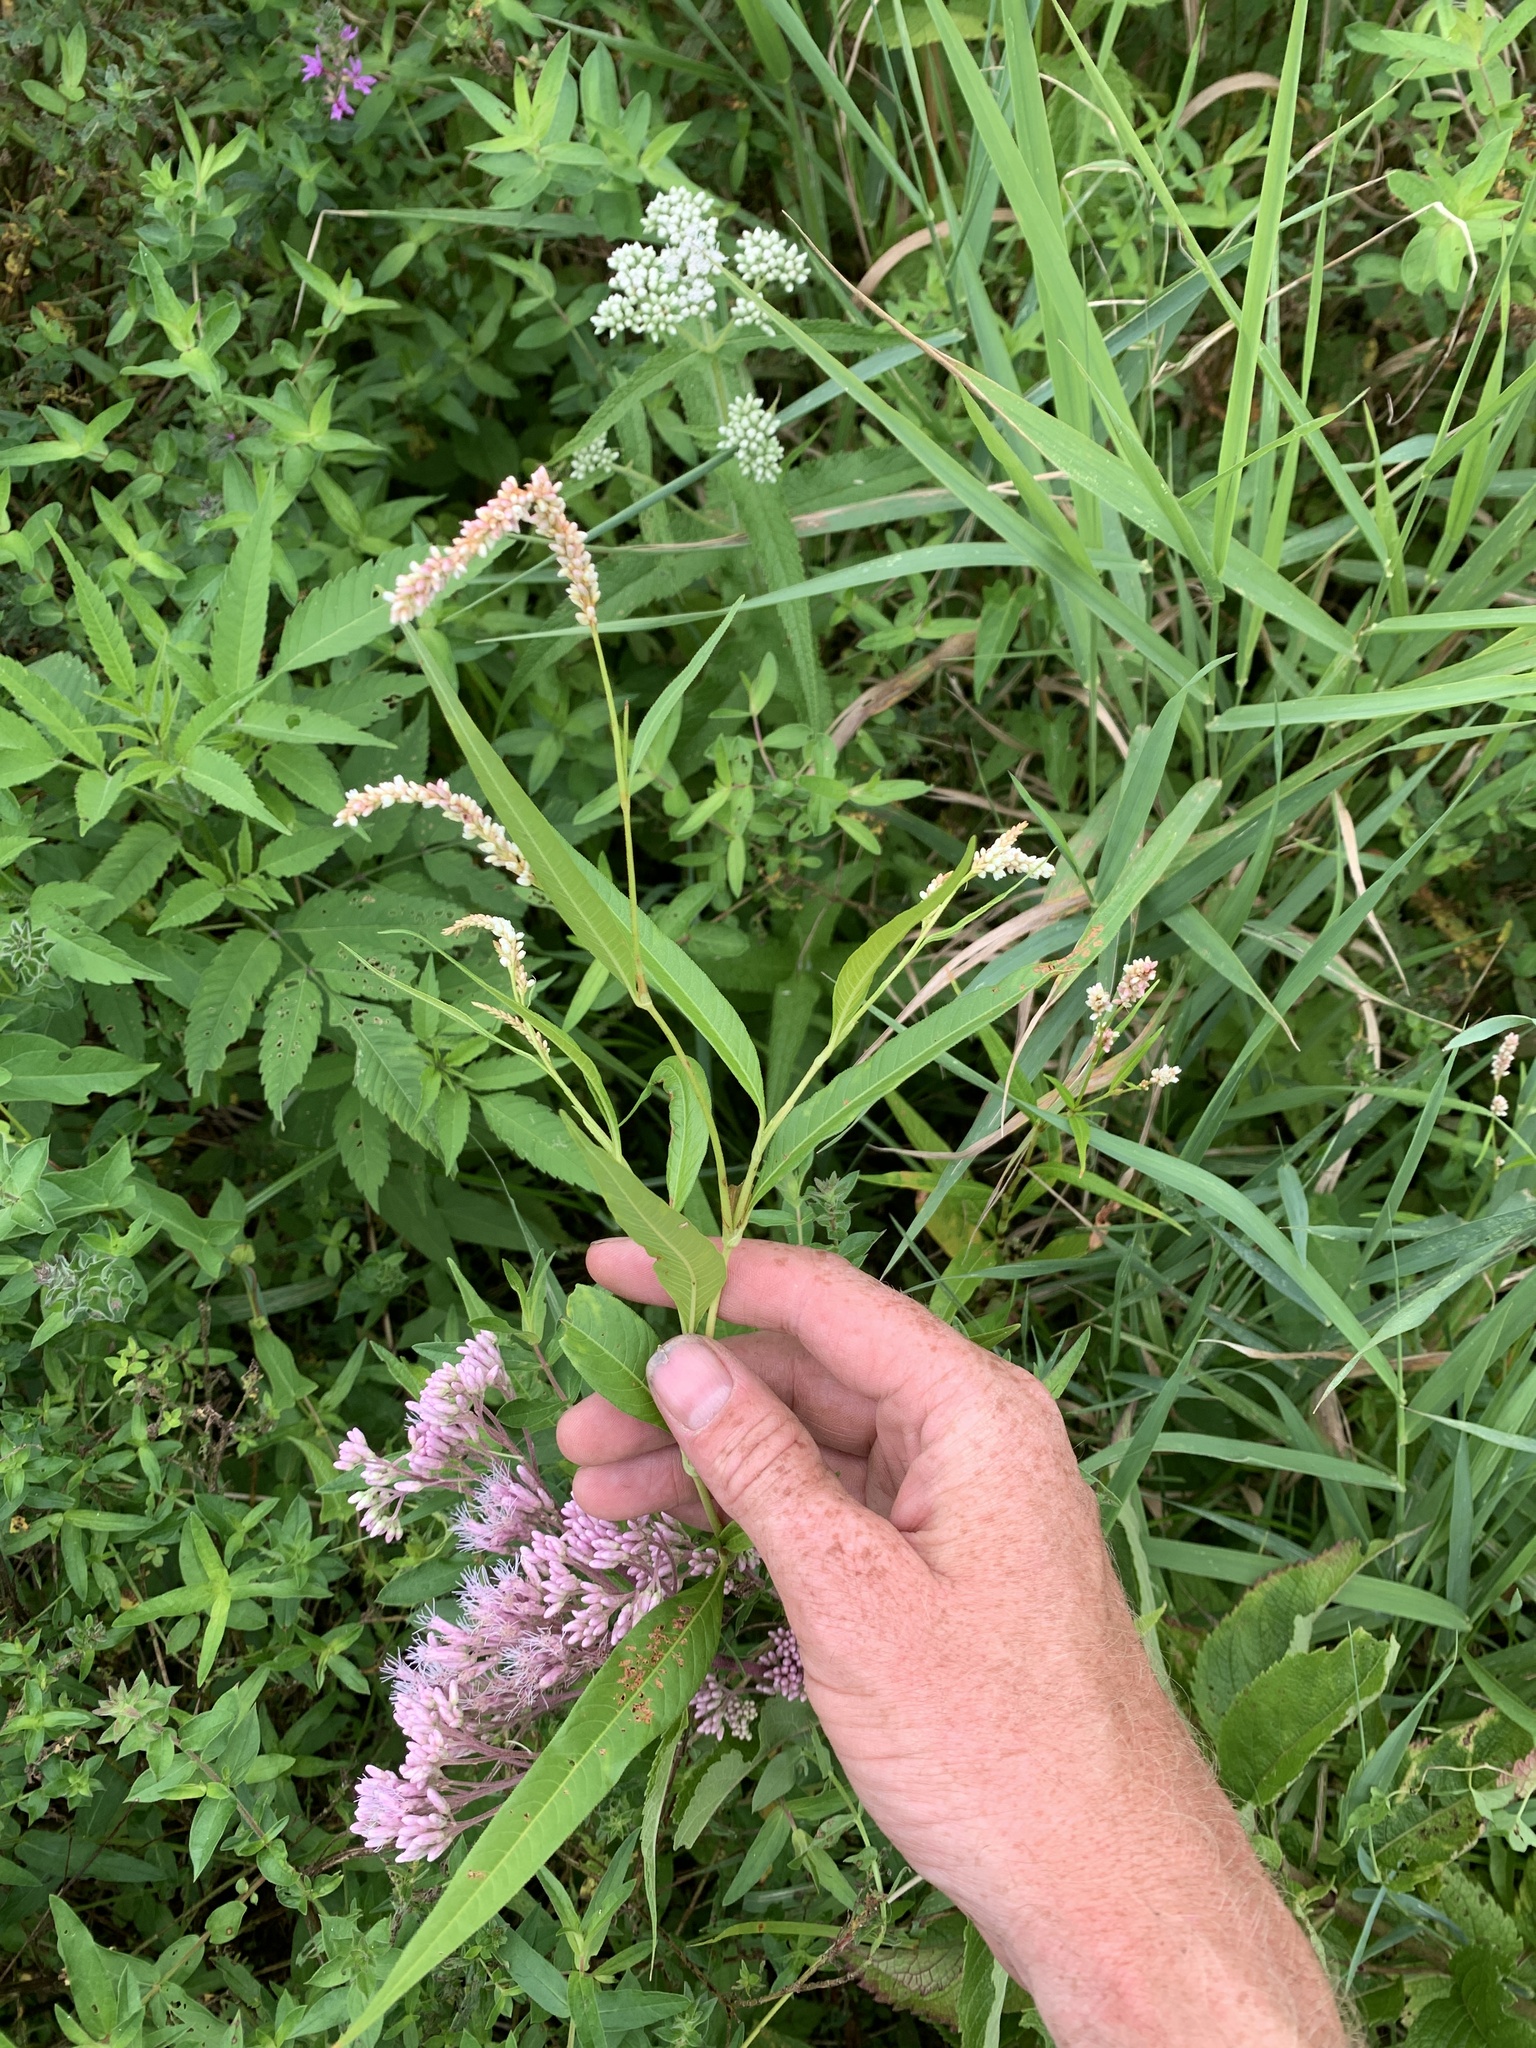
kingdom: Plantae
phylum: Tracheophyta
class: Magnoliopsida
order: Caryophyllales
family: Polygonaceae
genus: Persicaria
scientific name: Persicaria pensylvanica
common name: Pinkweed
